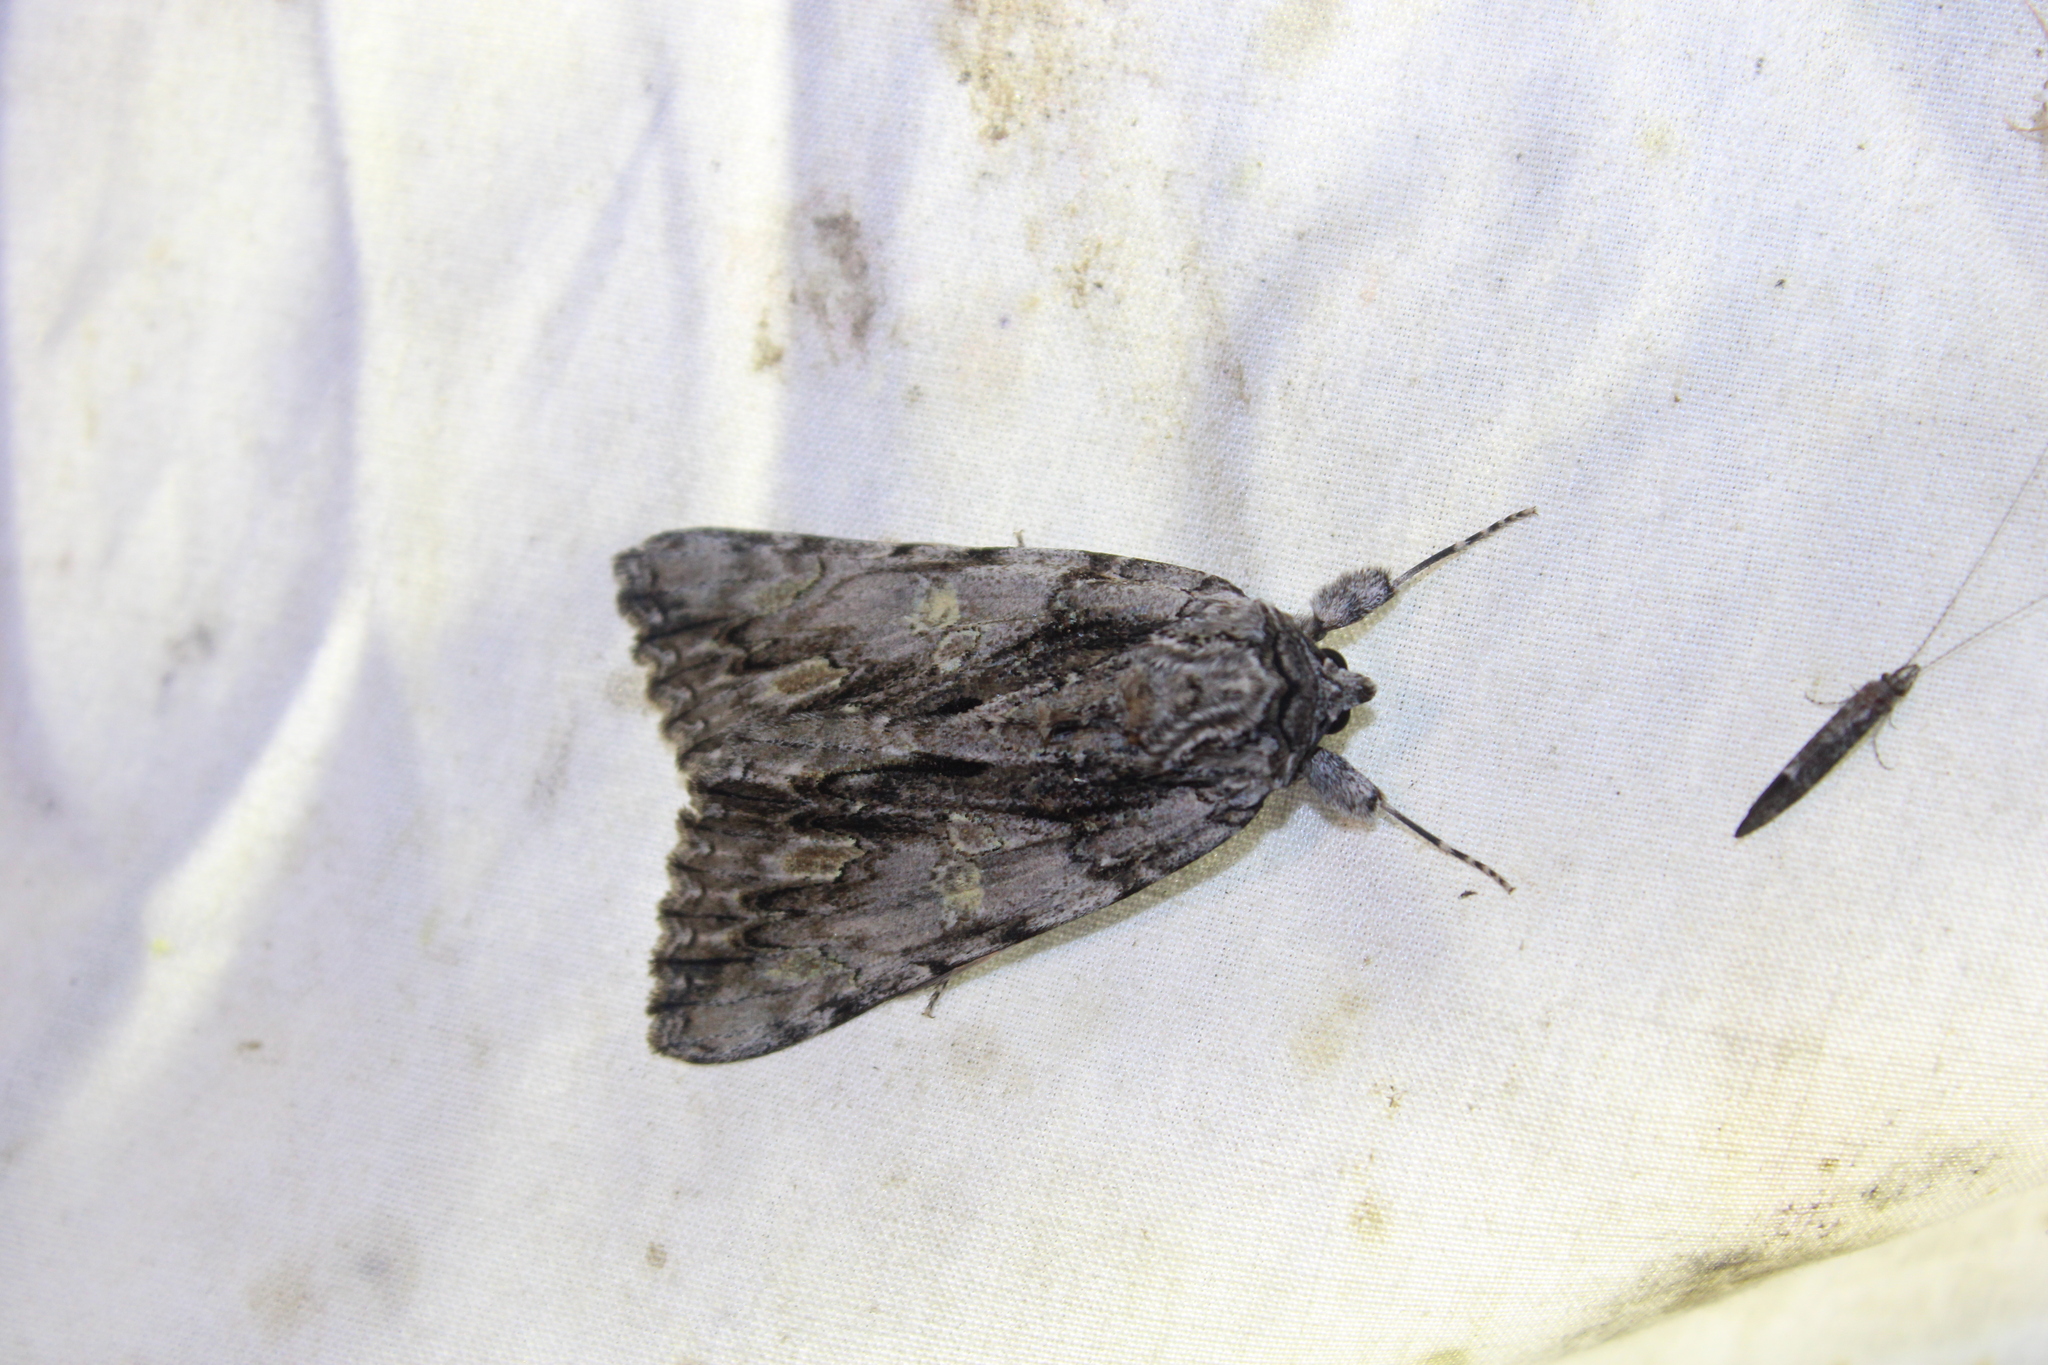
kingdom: Animalia
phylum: Arthropoda
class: Insecta
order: Lepidoptera
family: Erebidae
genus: Catocala
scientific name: Catocala coccinata
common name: Scarlet underwing
